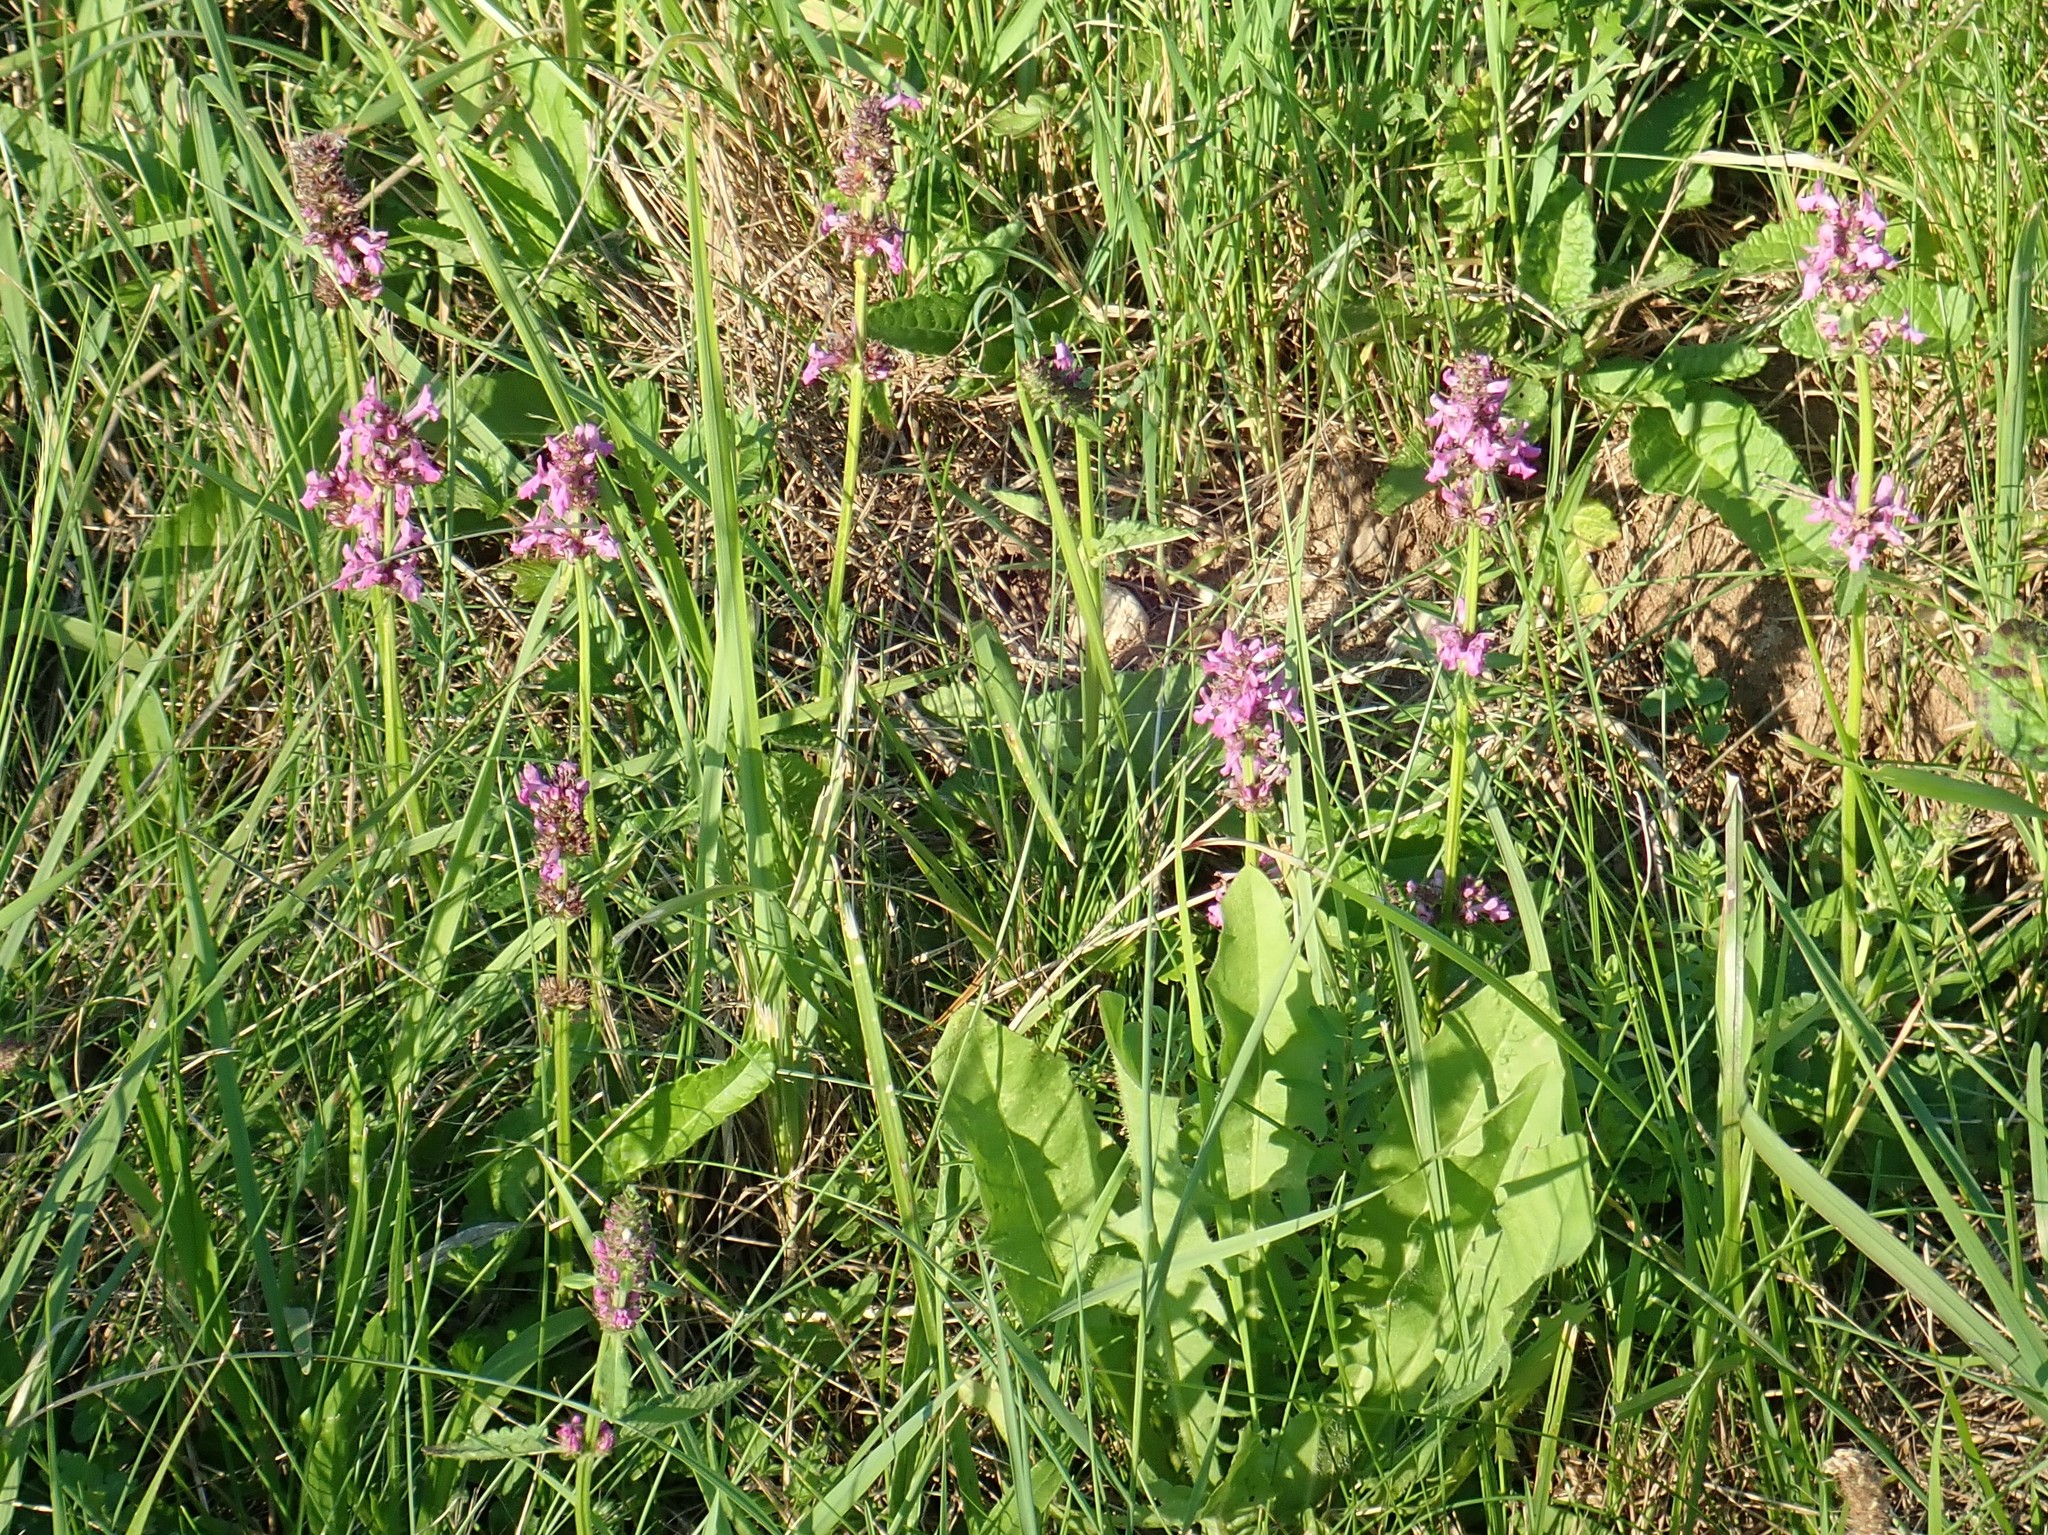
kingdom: Plantae
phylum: Tracheophyta
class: Magnoliopsida
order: Lamiales
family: Lamiaceae
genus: Betonica
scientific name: Betonica officinalis
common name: Bishop's-wort
